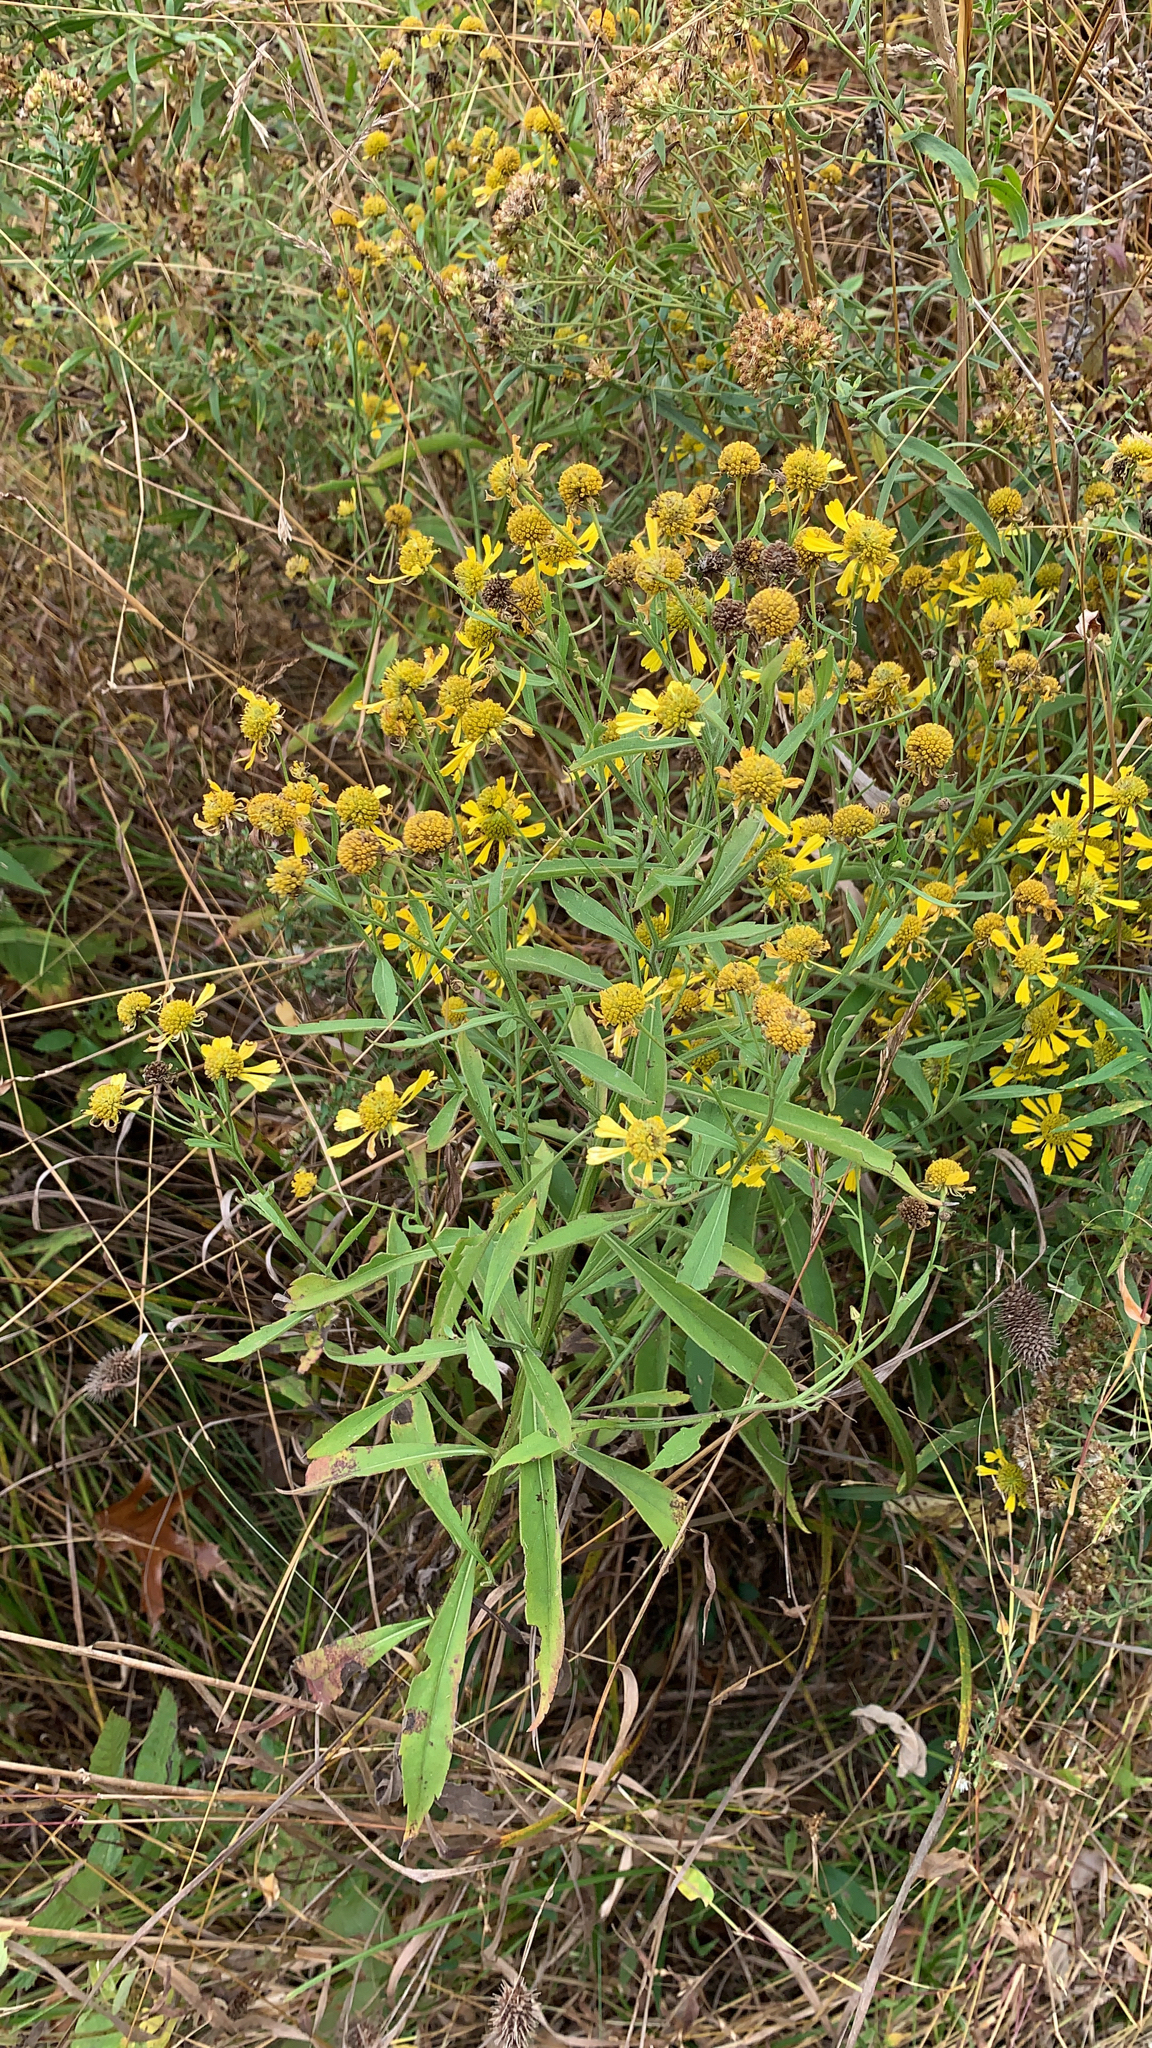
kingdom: Plantae
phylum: Tracheophyta
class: Magnoliopsida
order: Asterales
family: Asteraceae
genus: Helenium
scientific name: Helenium autumnale
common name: Sneezeweed
